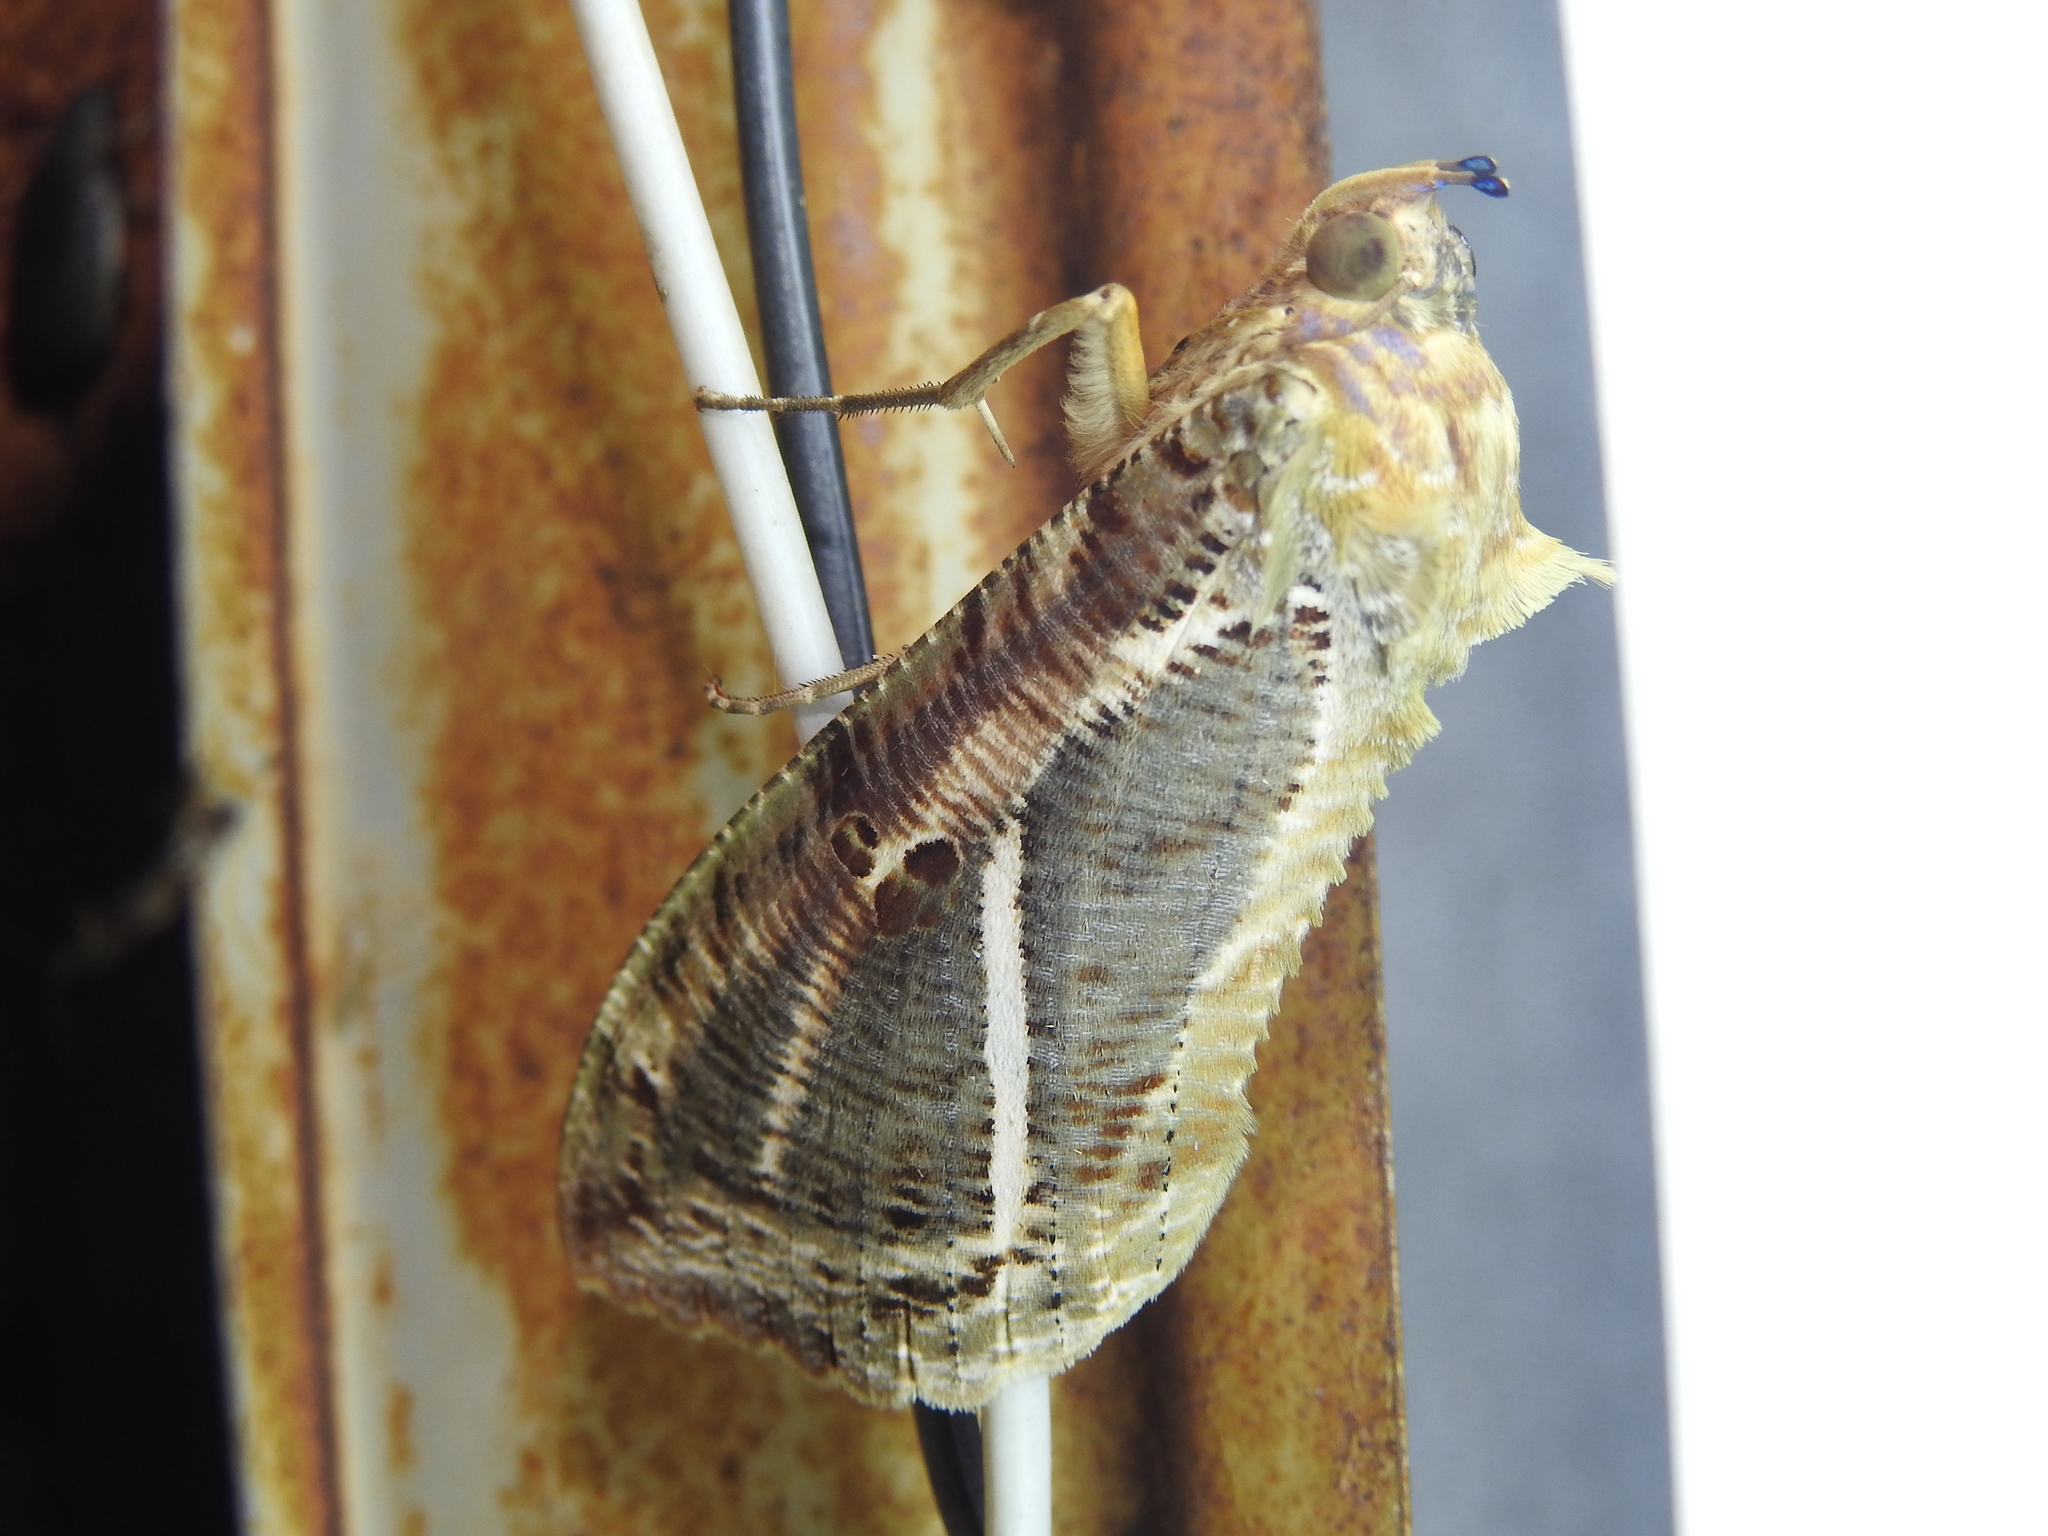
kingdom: Animalia
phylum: Arthropoda
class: Insecta
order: Lepidoptera
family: Erebidae
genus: Eudocima
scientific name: Eudocima materna
